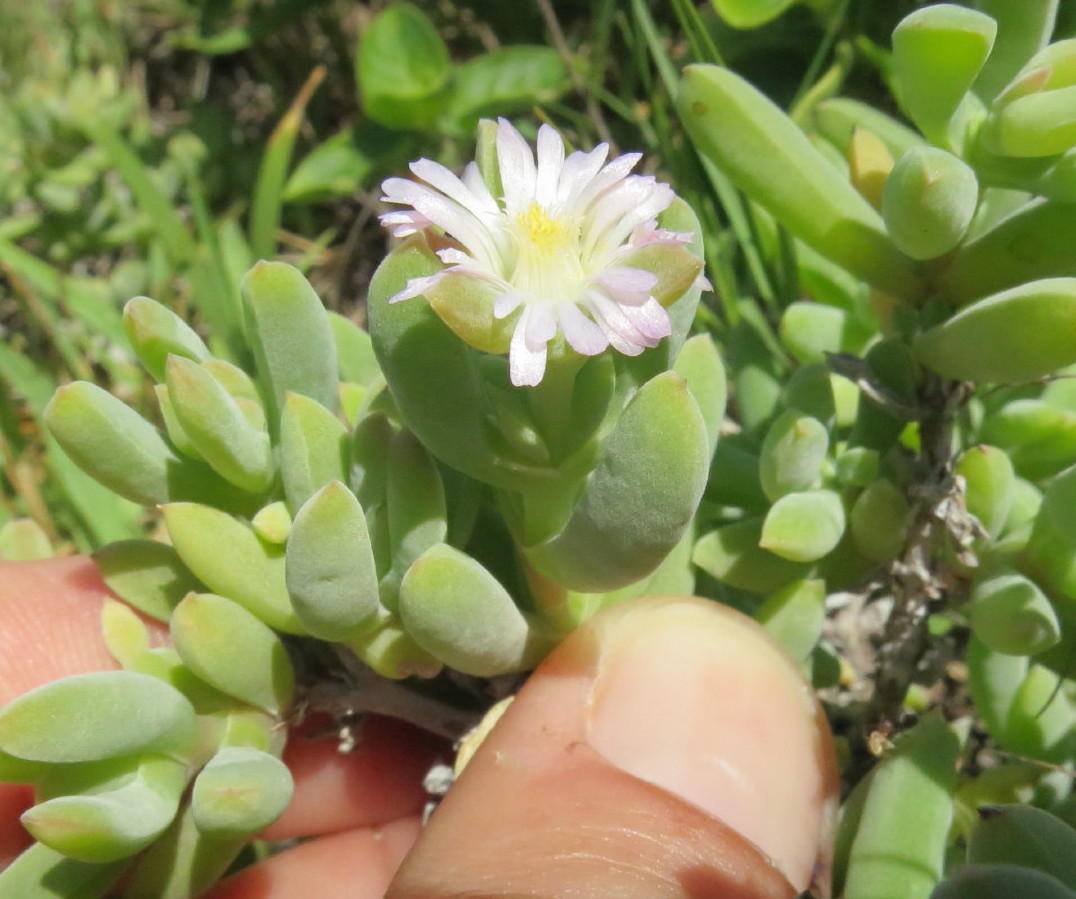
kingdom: Plantae
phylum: Tracheophyta
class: Magnoliopsida
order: Caryophyllales
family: Aizoaceae
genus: Delosperma
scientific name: Delosperma patersoniae
